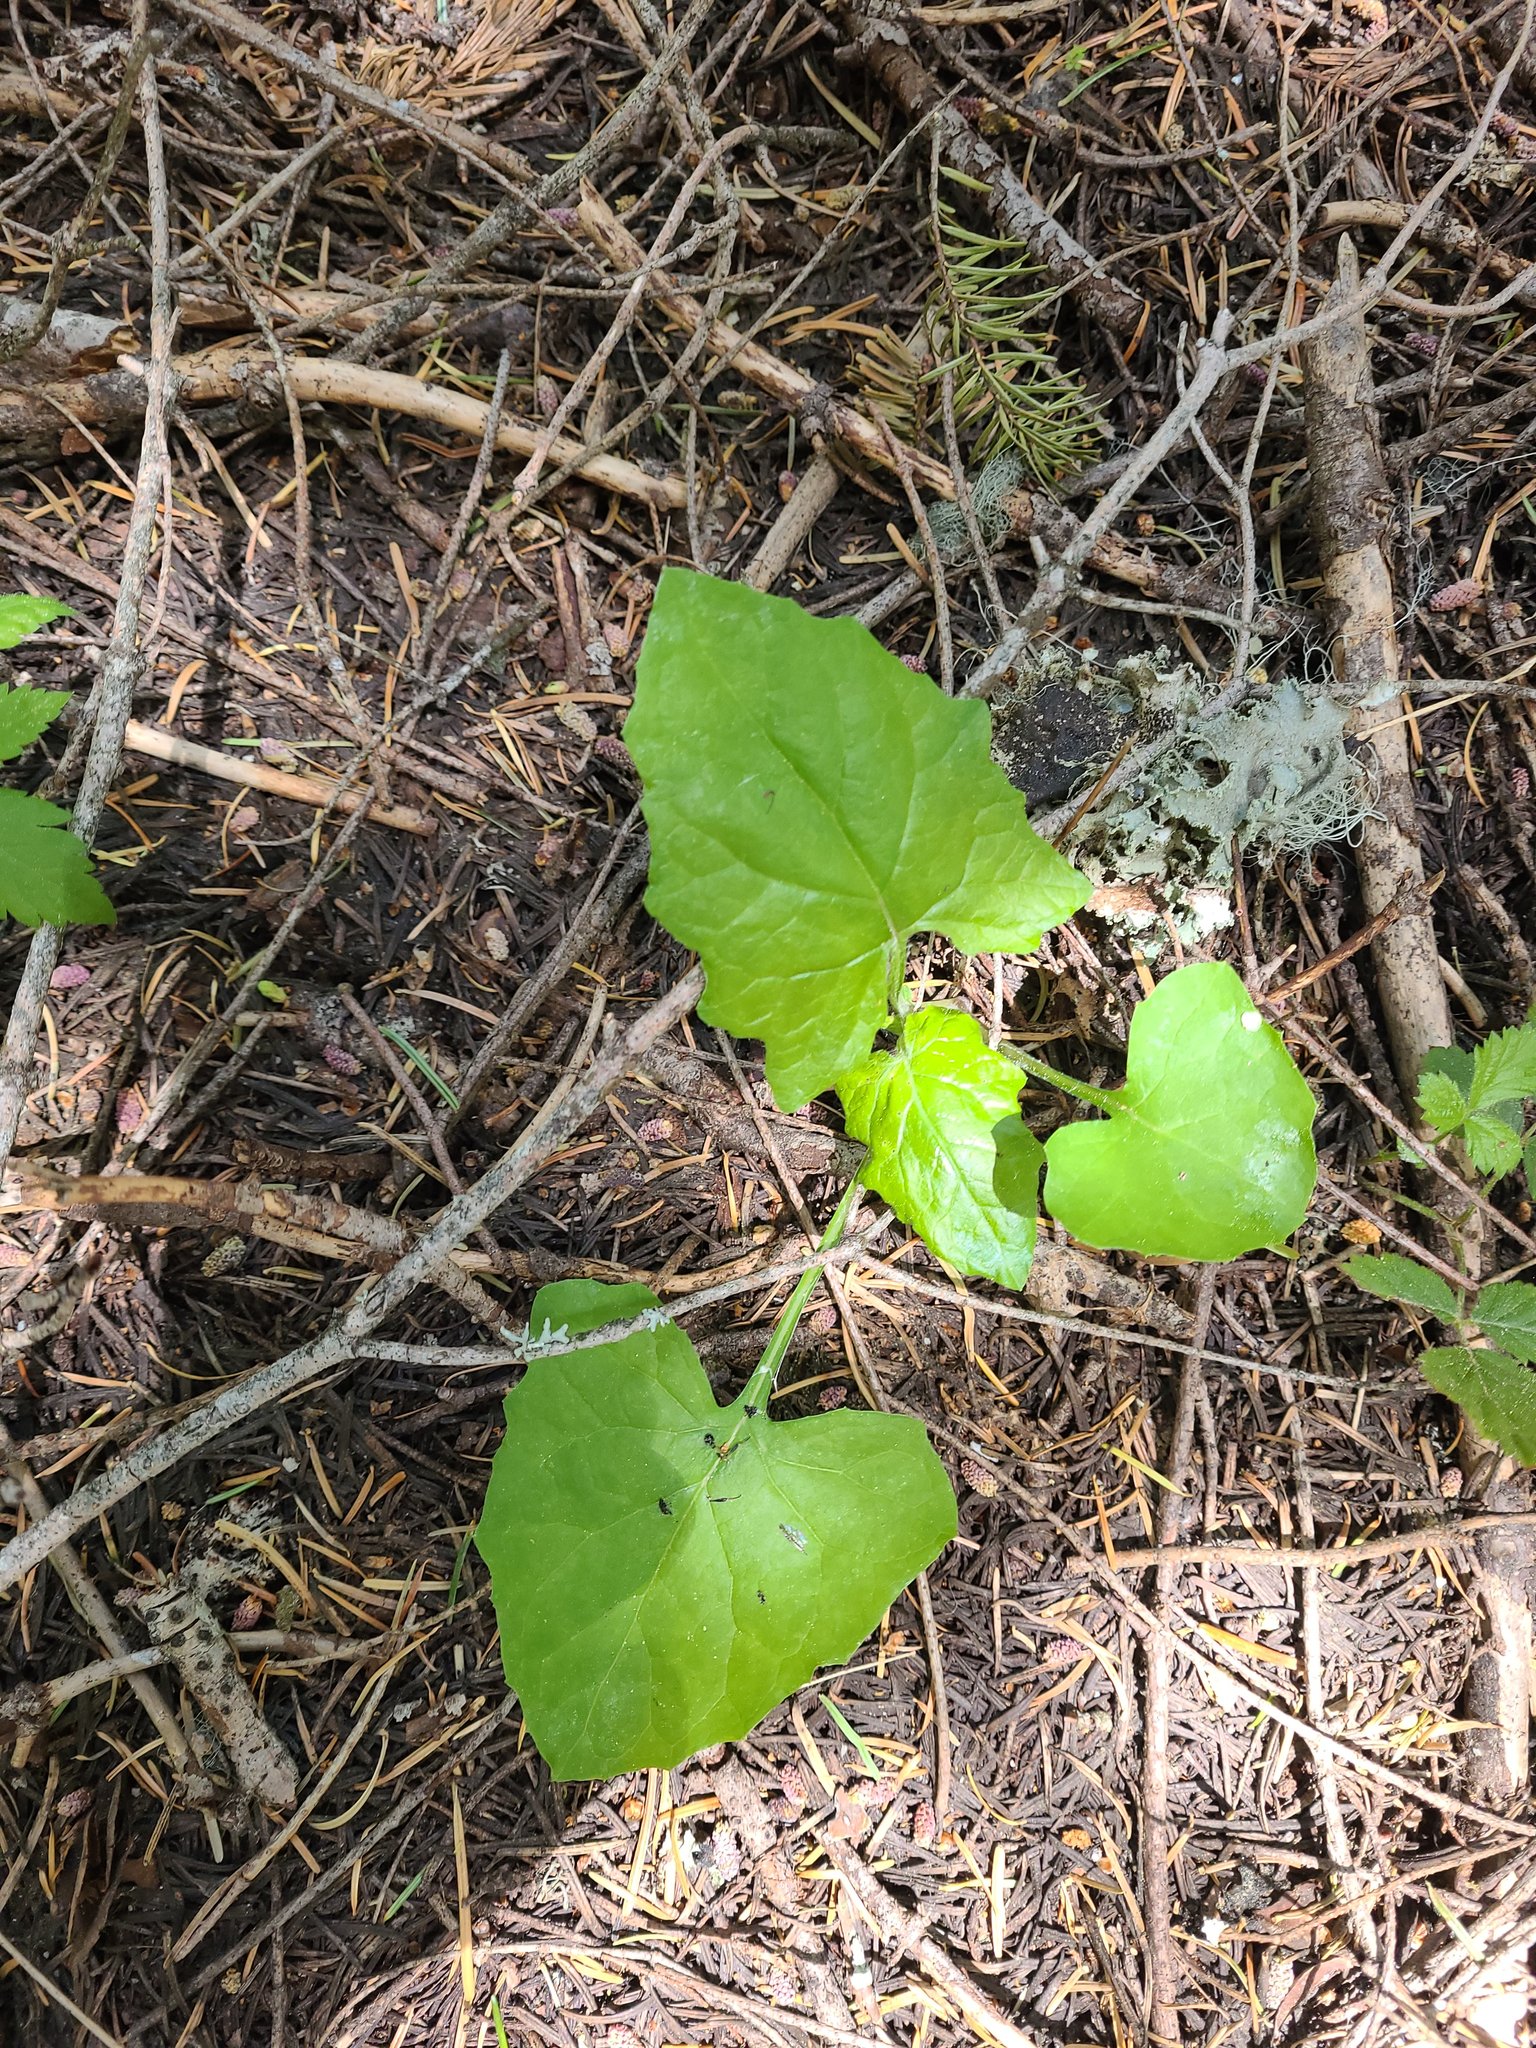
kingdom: Plantae
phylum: Tracheophyta
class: Magnoliopsida
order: Asterales
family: Asteraceae
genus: Adenocaulon
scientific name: Adenocaulon bicolor
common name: Trailplant
